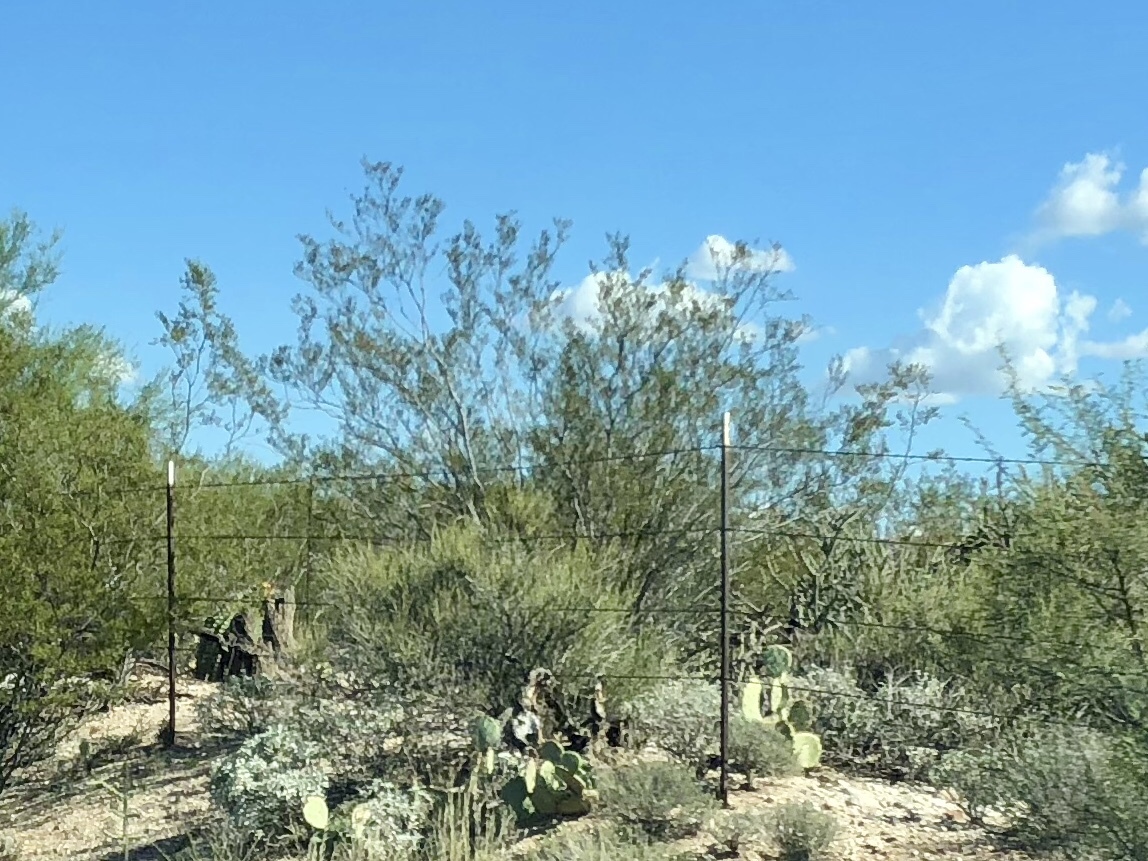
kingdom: Plantae
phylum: Tracheophyta
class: Magnoliopsida
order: Zygophyllales
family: Zygophyllaceae
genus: Larrea
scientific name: Larrea tridentata
